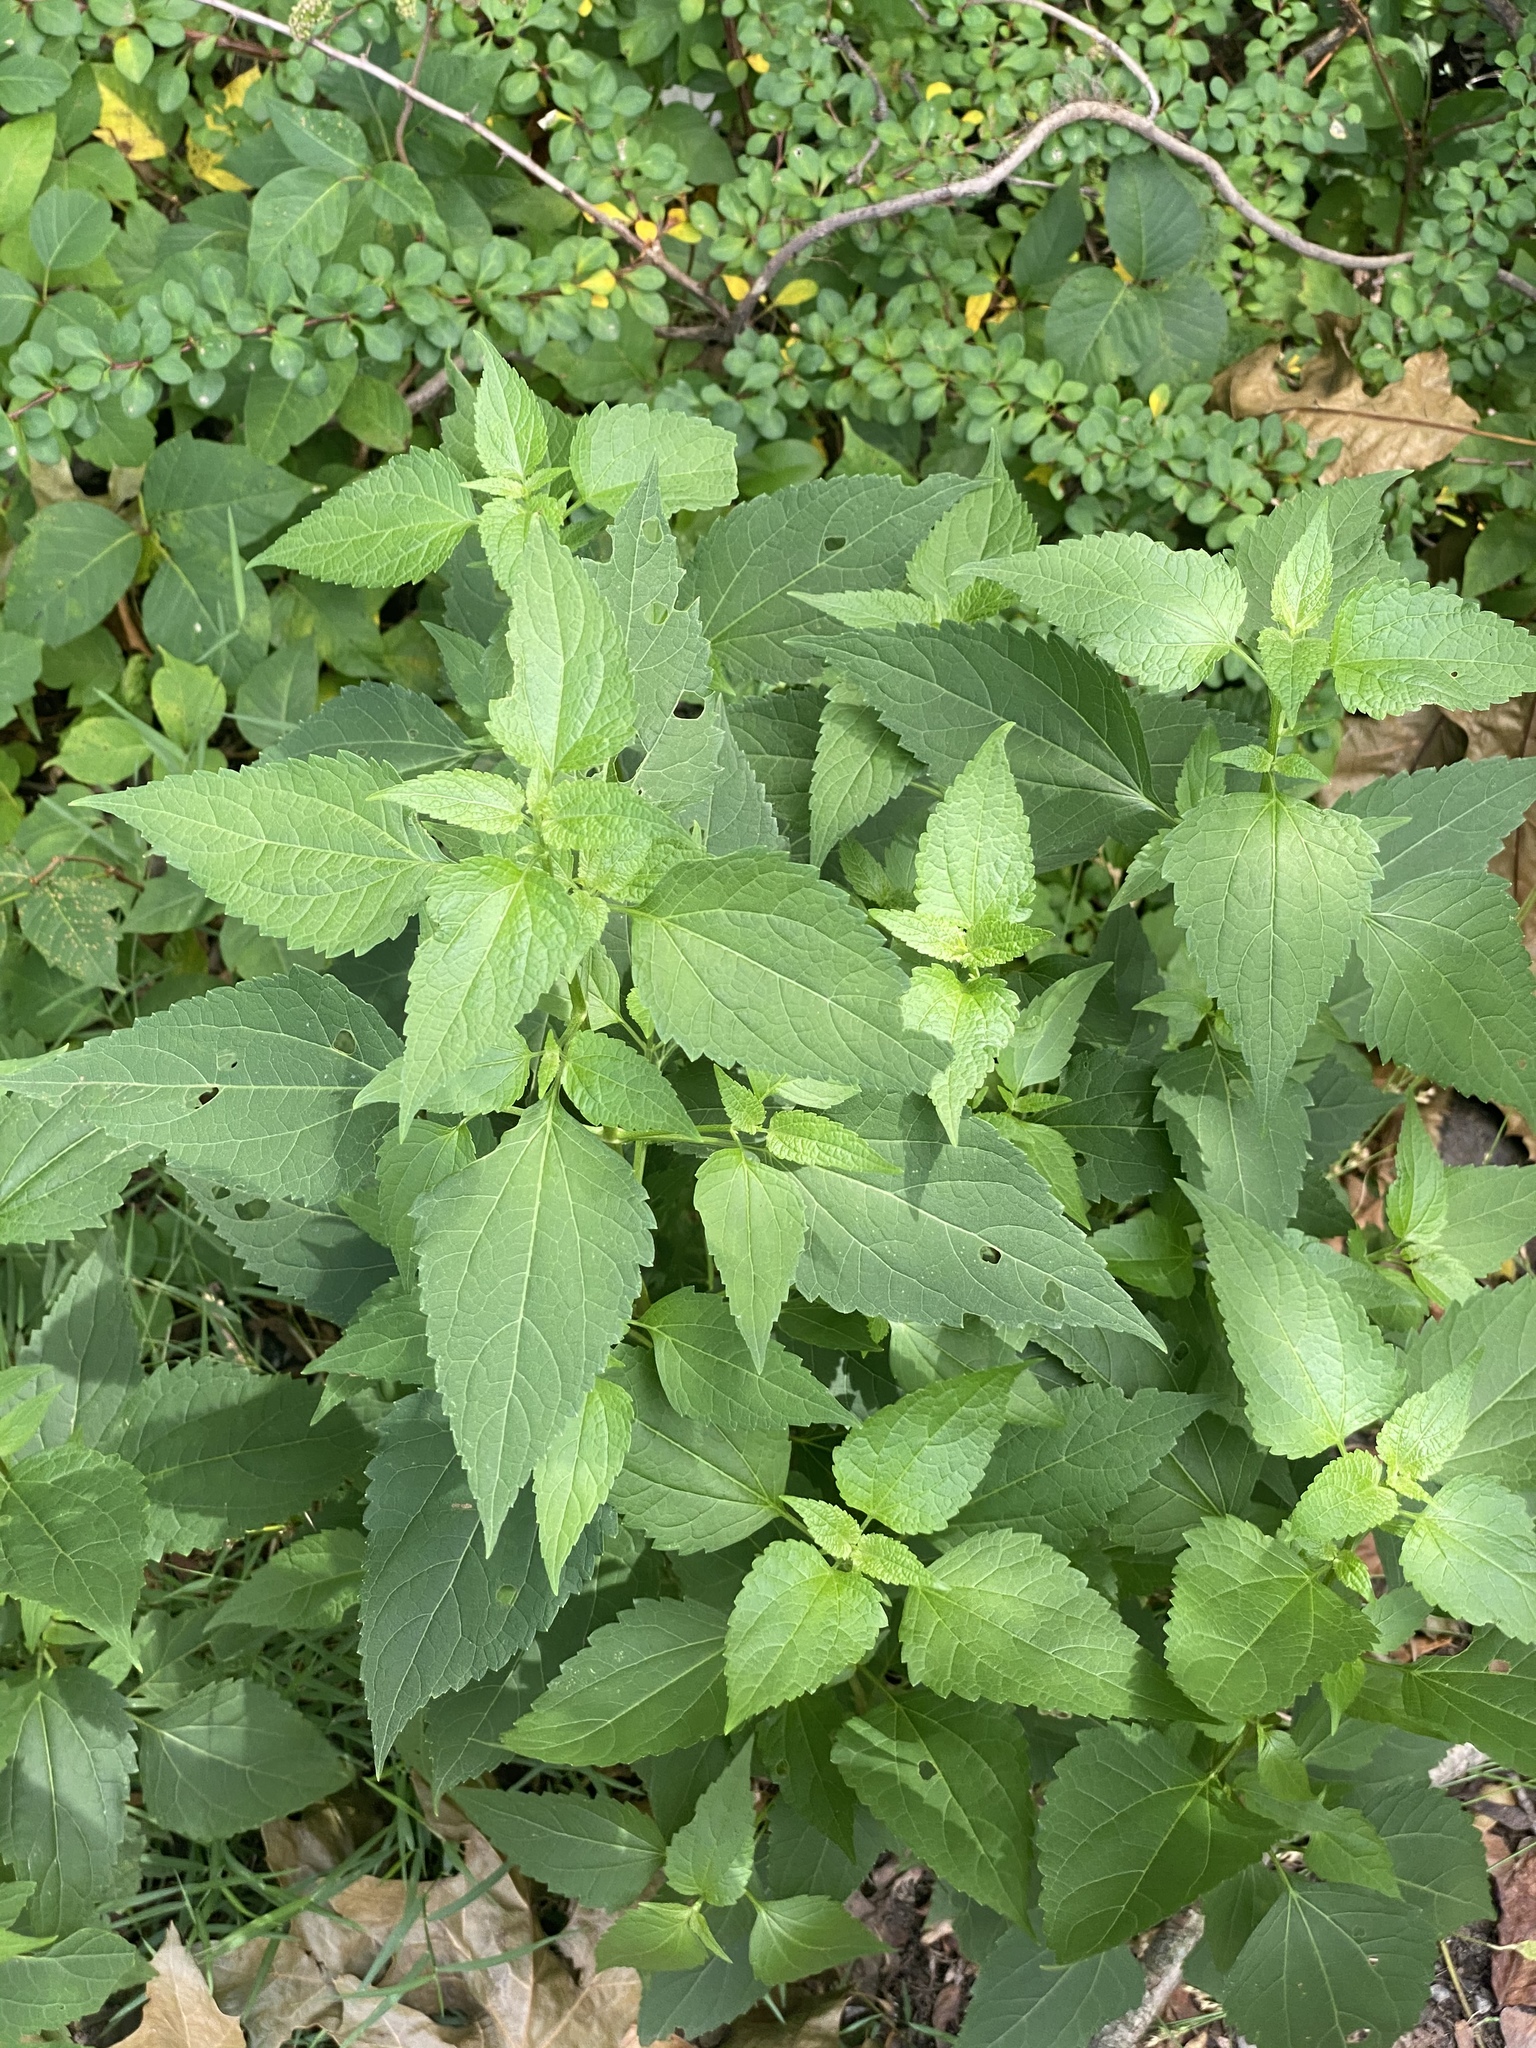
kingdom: Plantae
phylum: Tracheophyta
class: Magnoliopsida
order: Asterales
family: Asteraceae
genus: Ageratina
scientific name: Ageratina altissima
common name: White snakeroot
